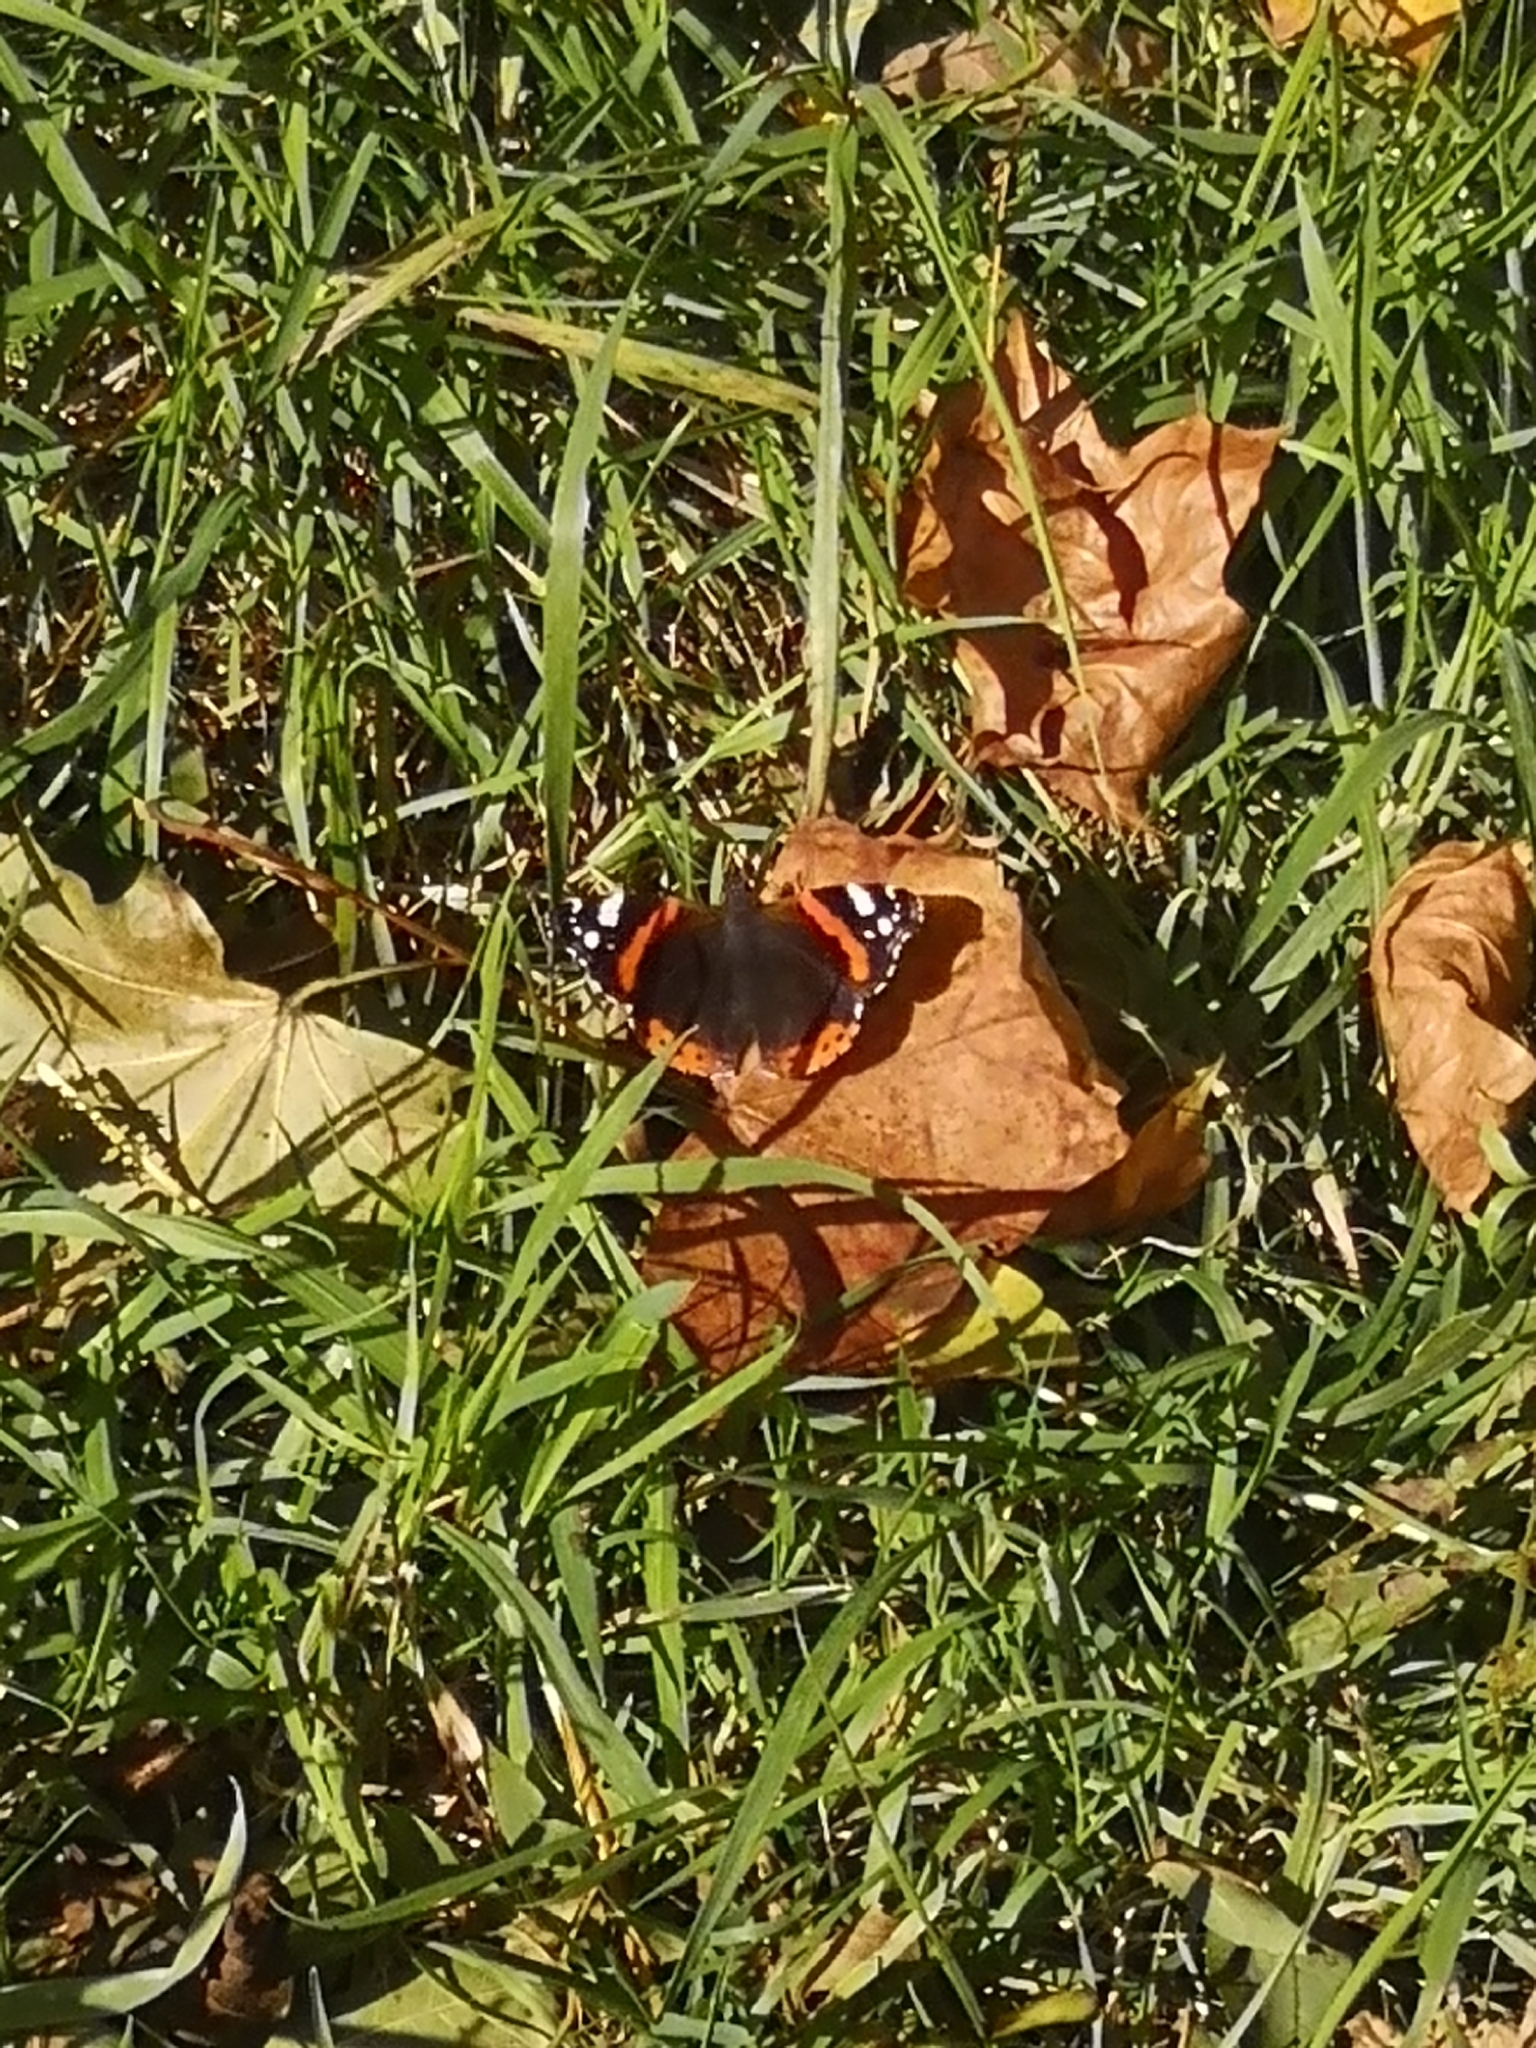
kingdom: Animalia
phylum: Arthropoda
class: Insecta
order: Lepidoptera
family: Nymphalidae
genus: Vanessa
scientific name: Vanessa atalanta
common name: Red admiral
